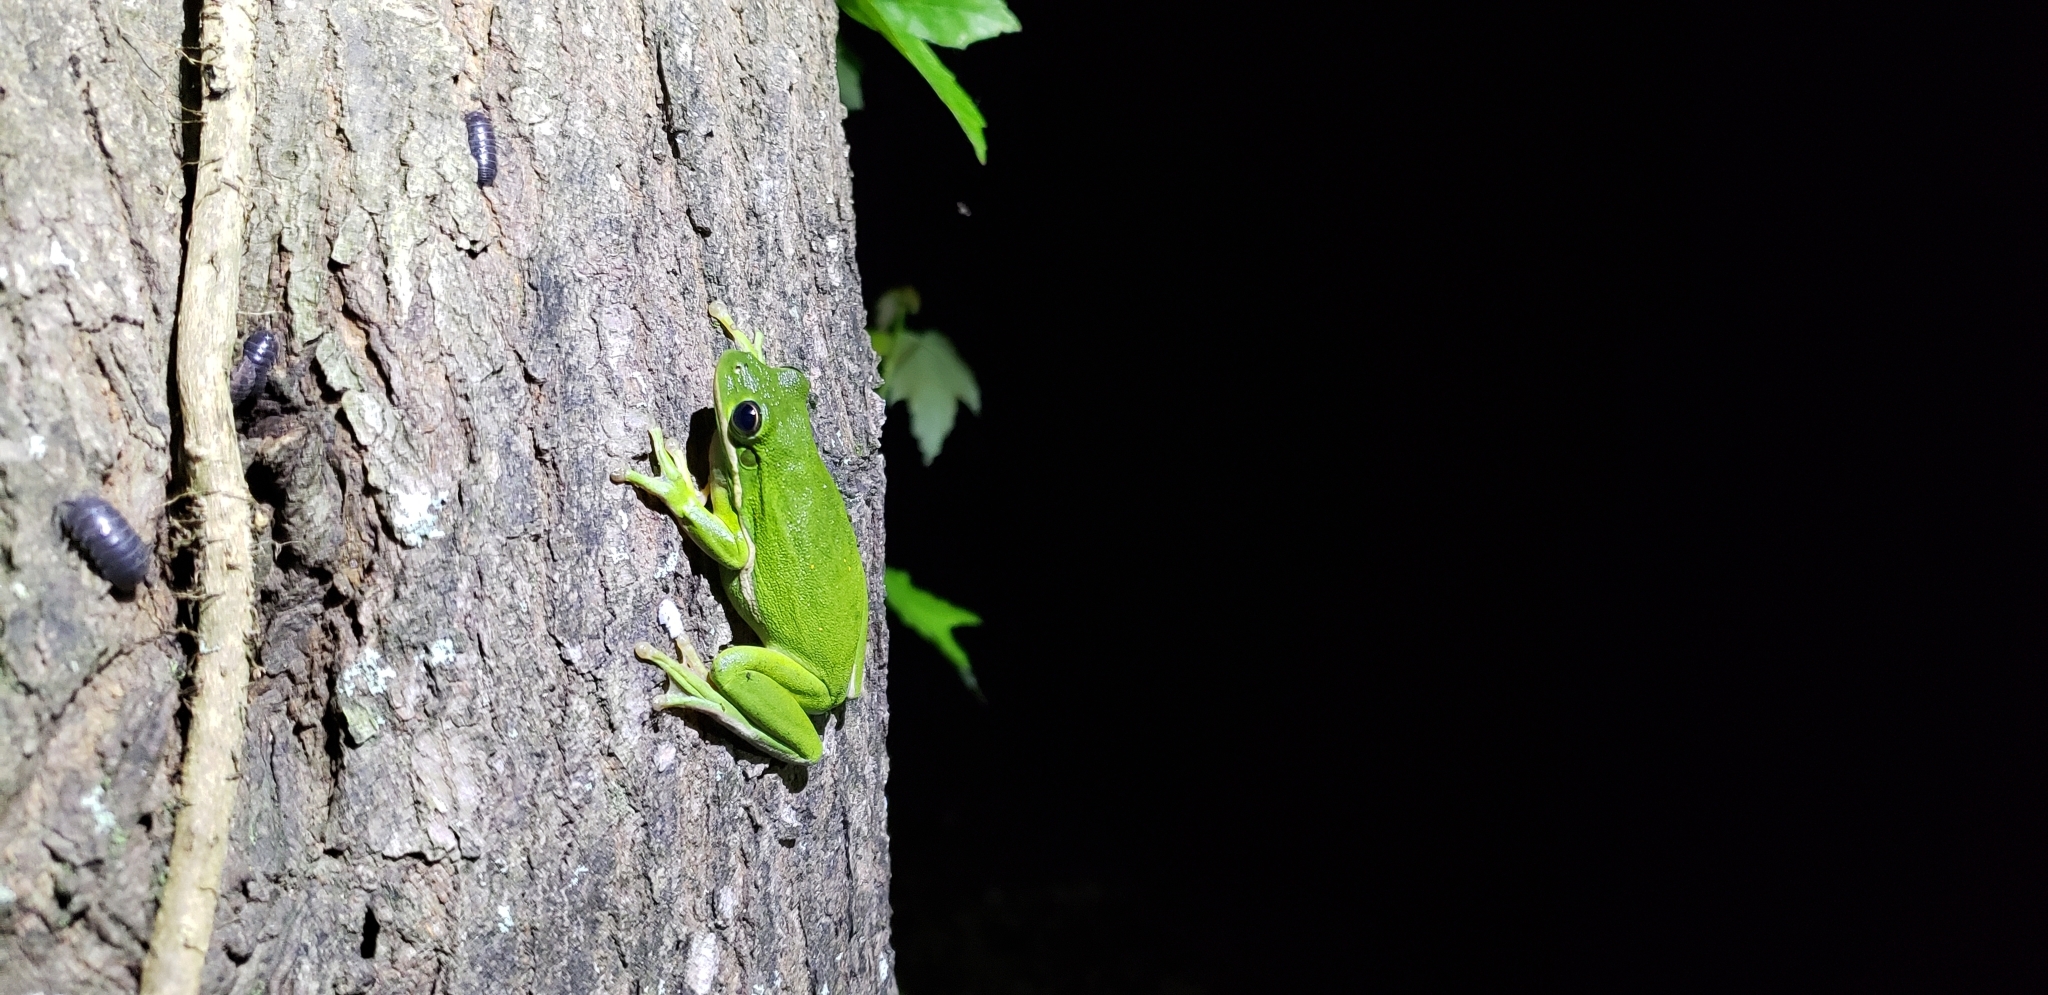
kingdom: Animalia
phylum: Chordata
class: Amphibia
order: Anura
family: Hylidae
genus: Dryophytes
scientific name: Dryophytes cinereus
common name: Green treefrog
